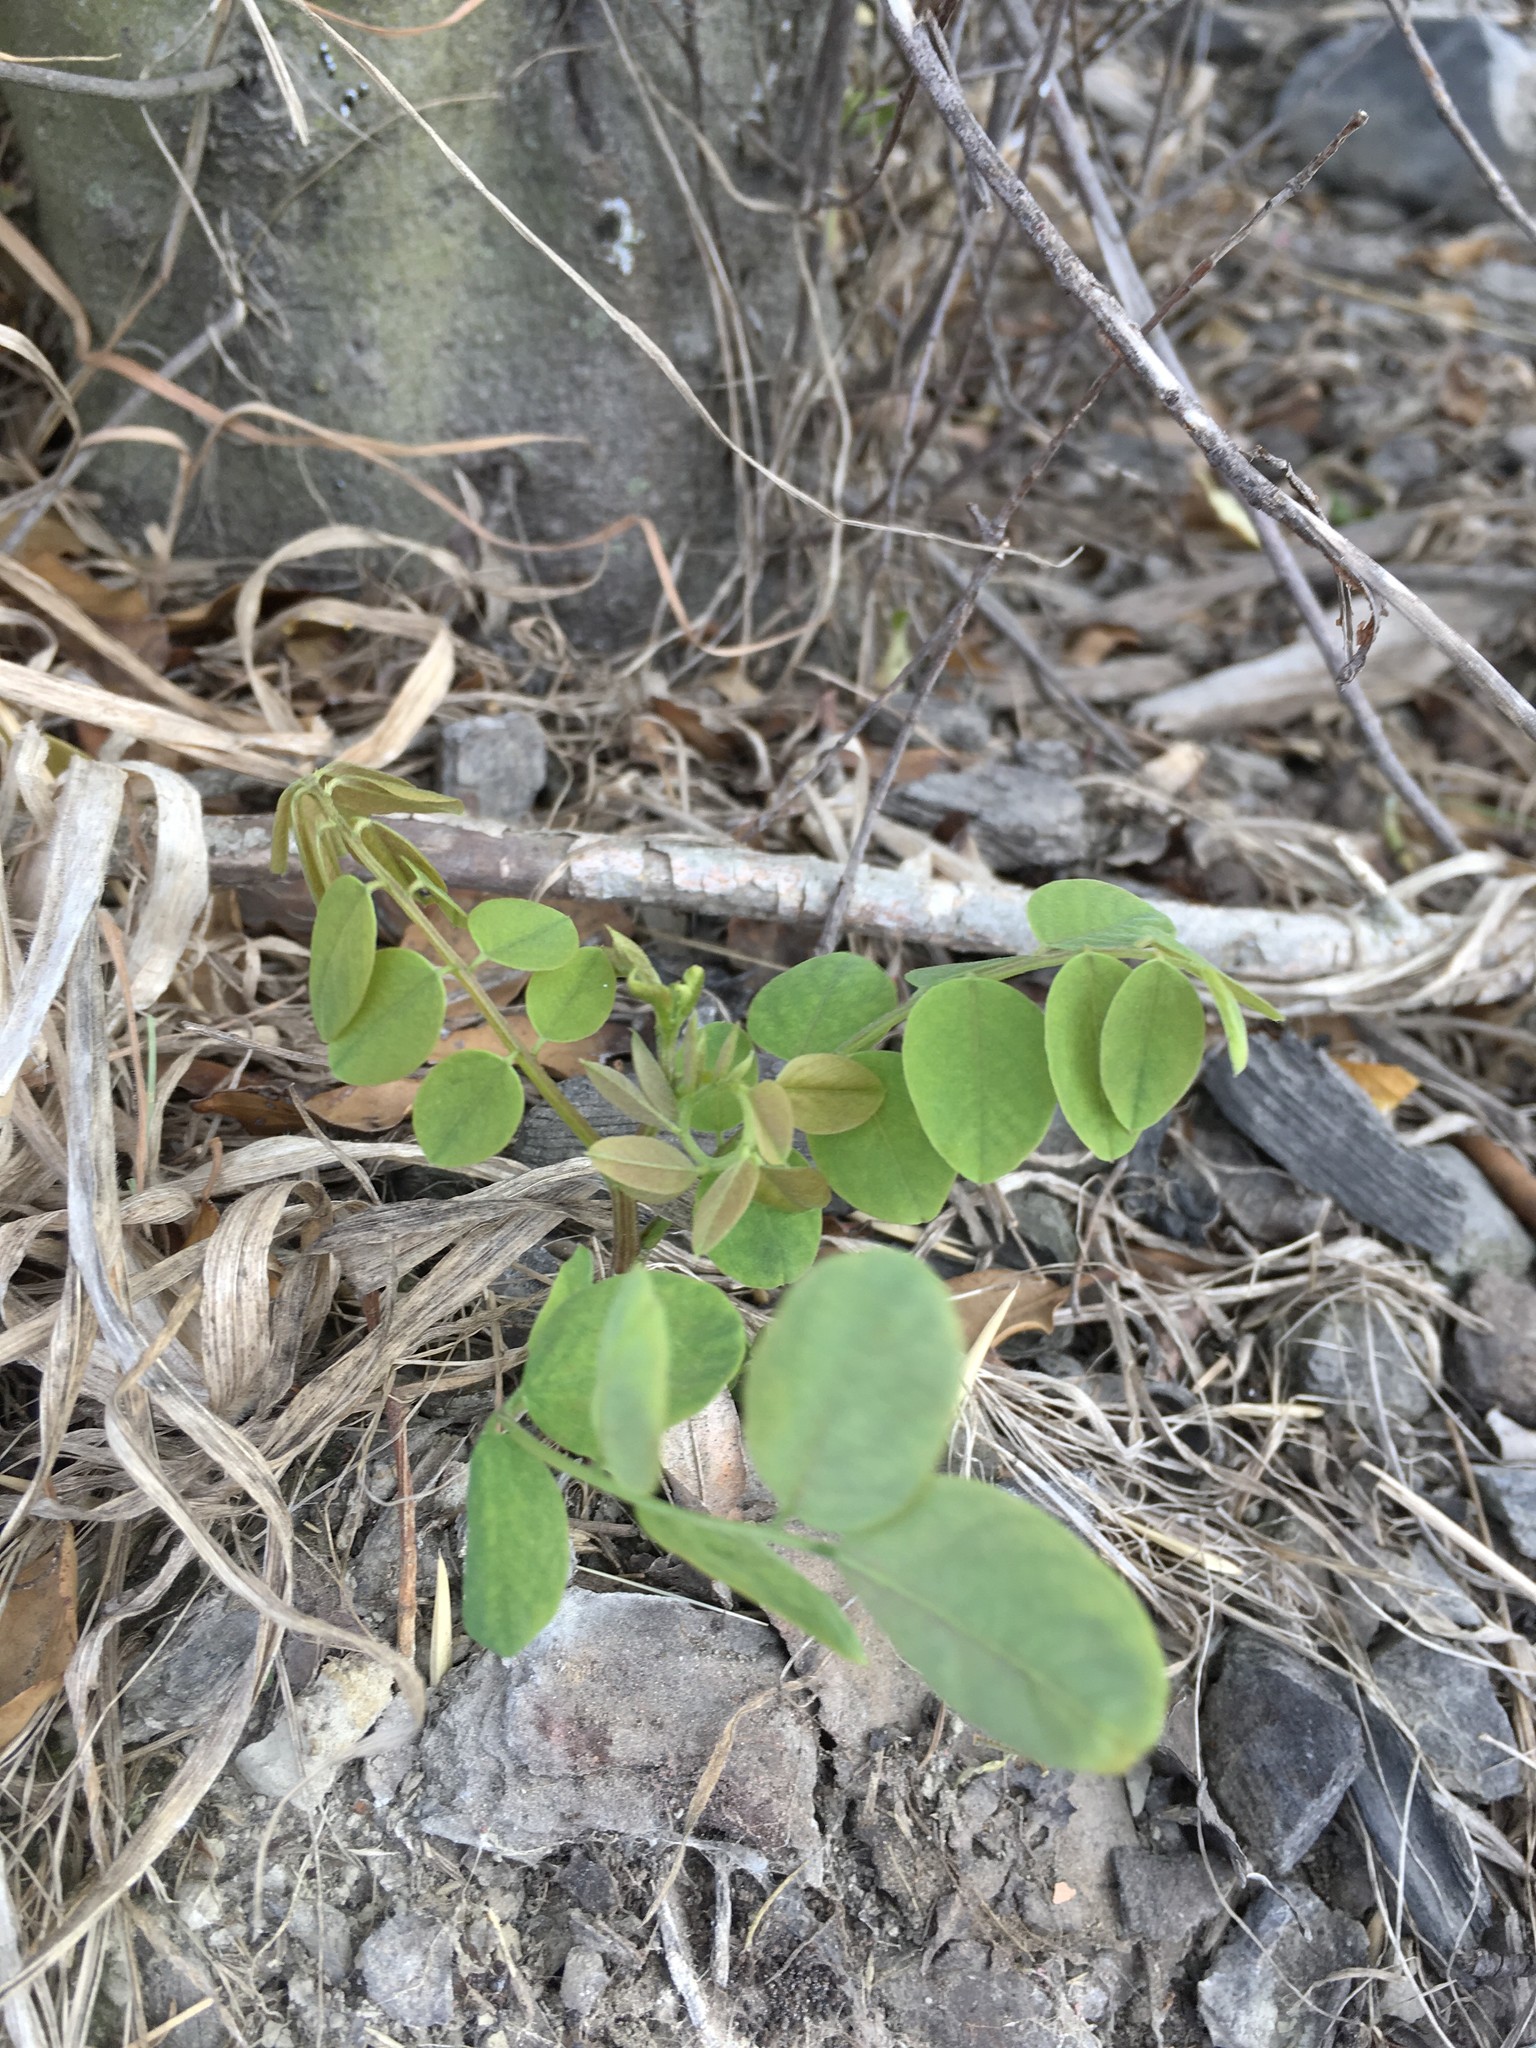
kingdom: Plantae
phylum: Tracheophyta
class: Magnoliopsida
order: Fabales
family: Fabaceae
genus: Robinia
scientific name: Robinia pseudoacacia
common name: Black locust
